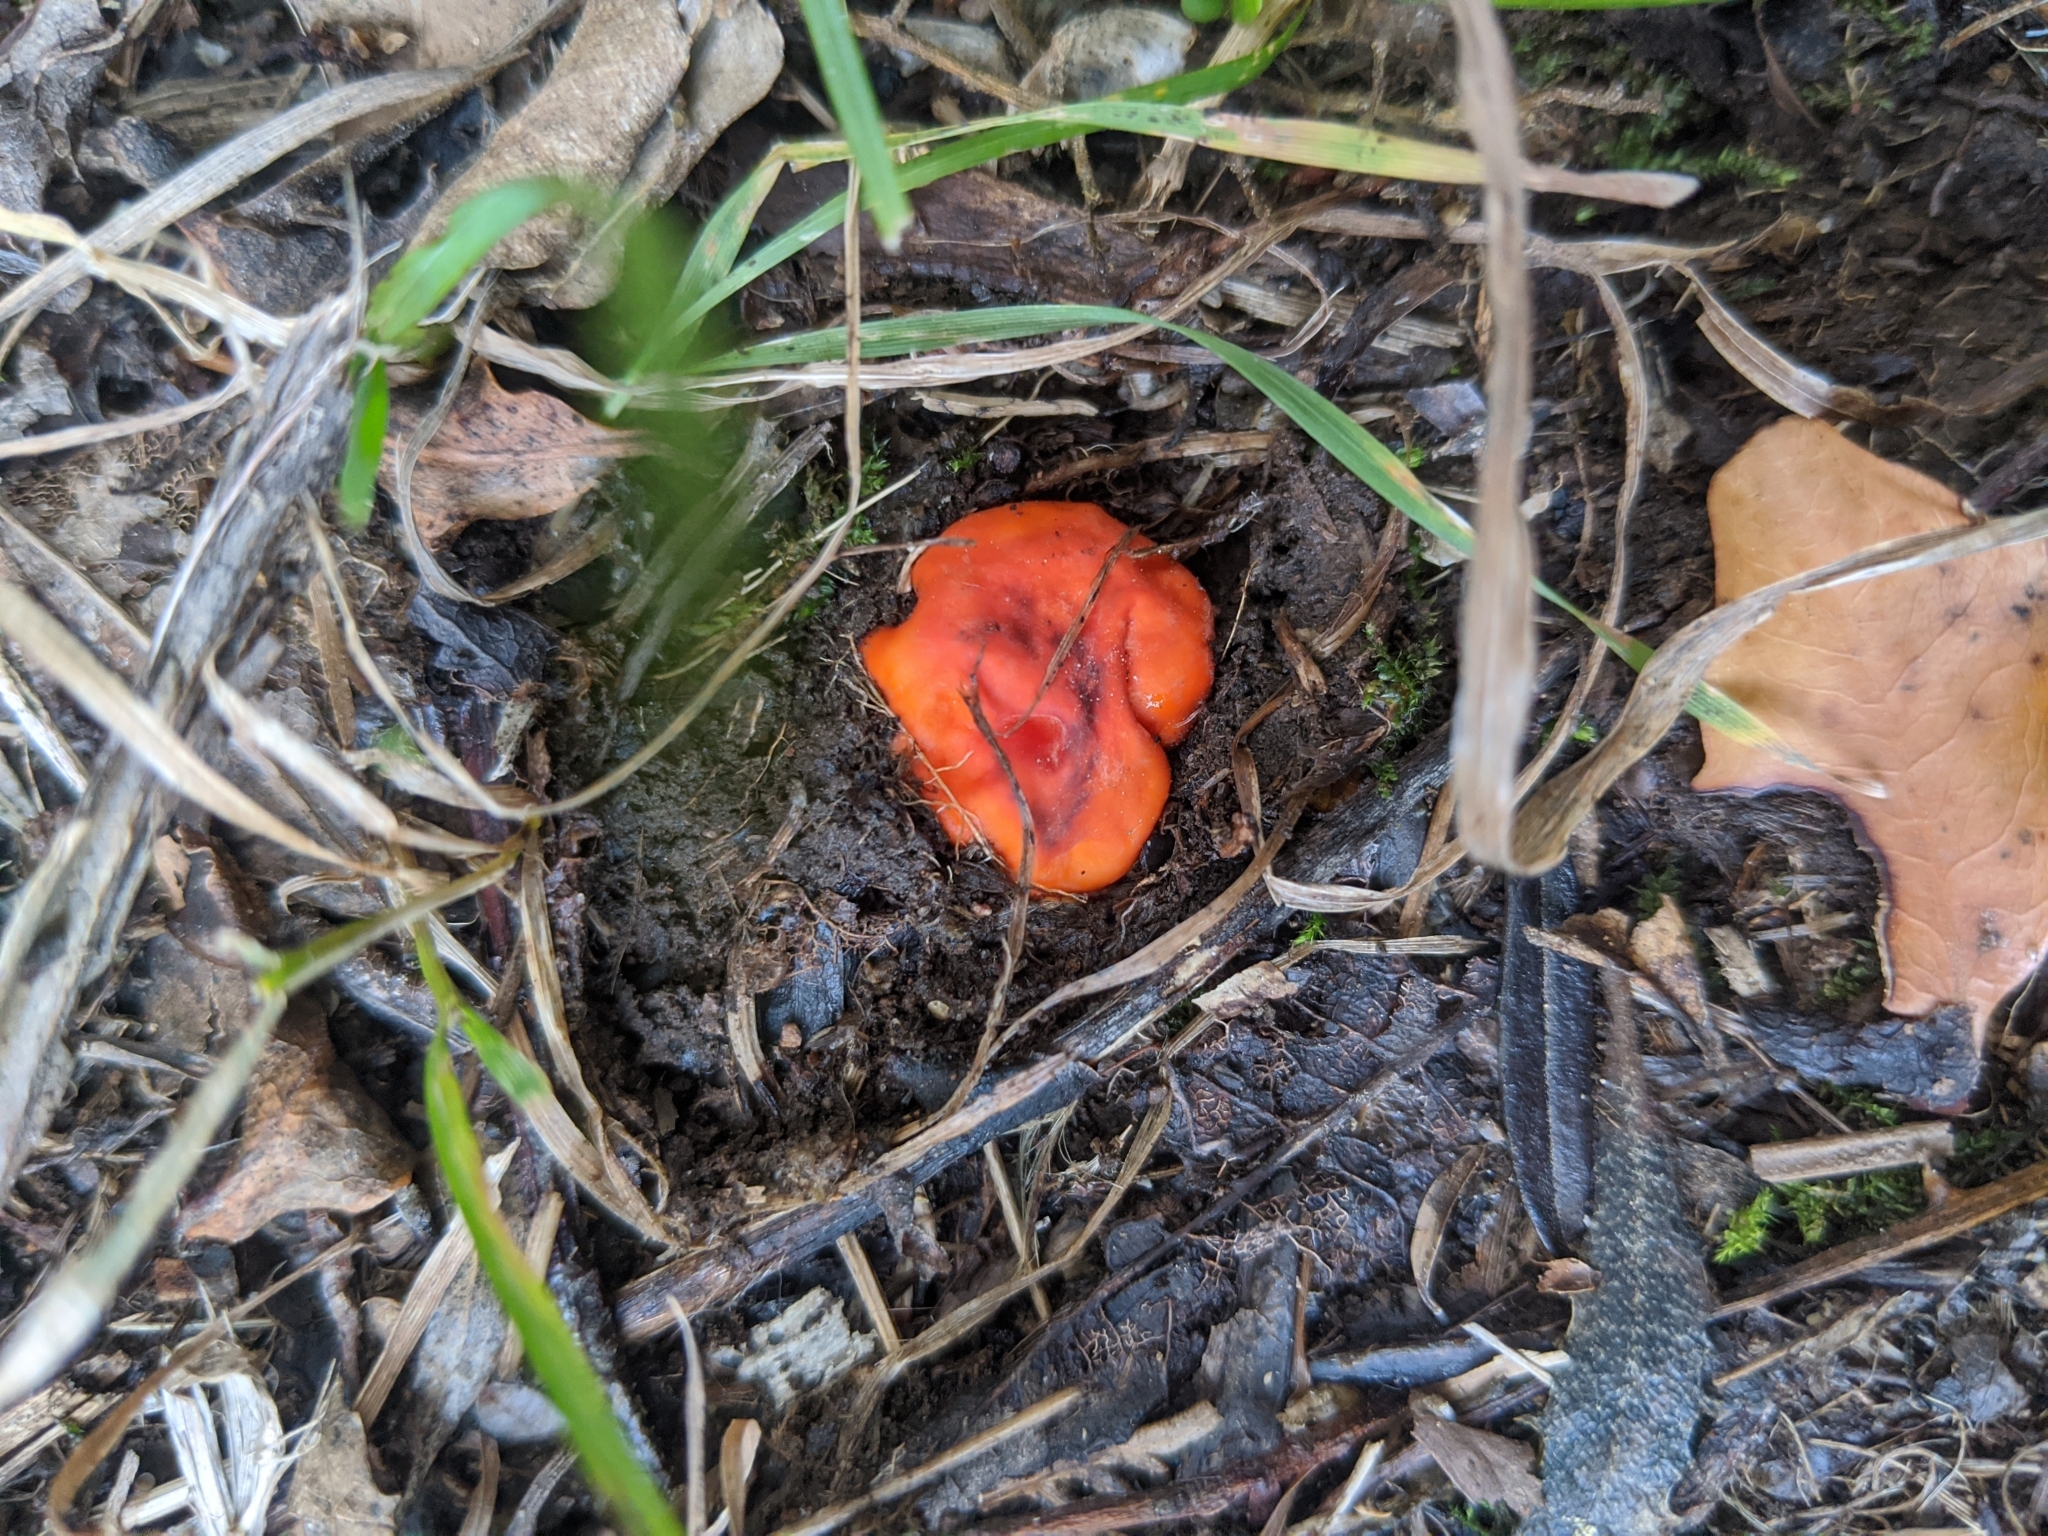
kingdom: Fungi
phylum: Ascomycota
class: Pezizomycetes
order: Pezizales
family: Pyronemataceae
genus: Paurocotylis
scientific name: Paurocotylis pila
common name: Scarlet berry truffle
